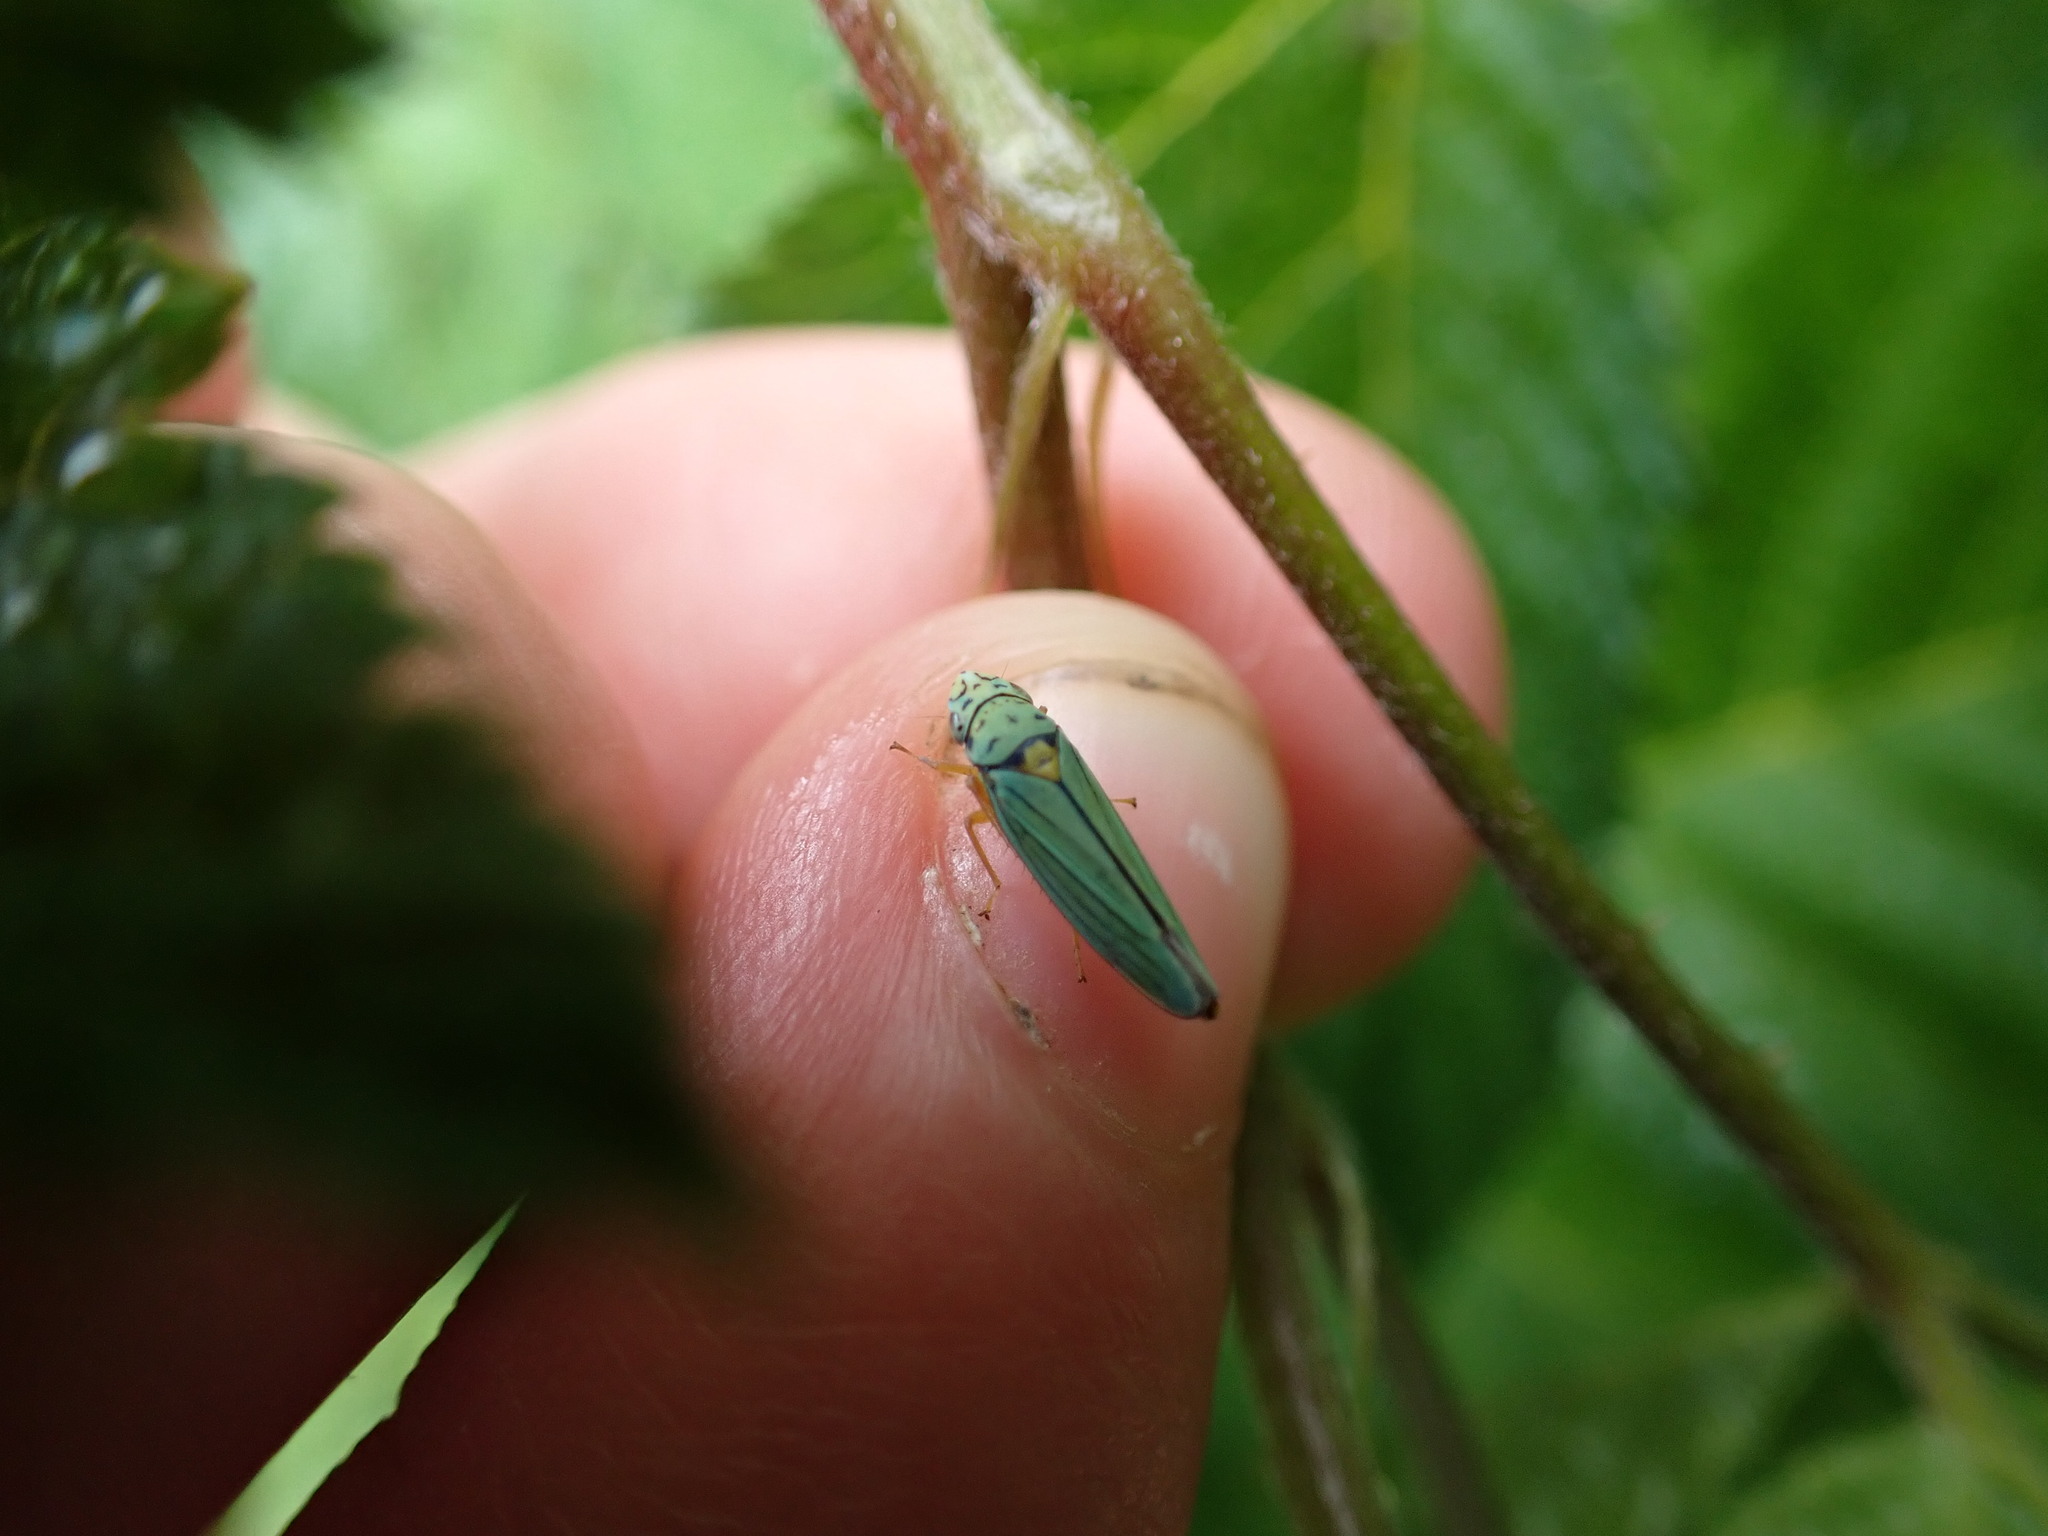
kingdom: Animalia
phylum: Arthropoda
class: Insecta
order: Hemiptera
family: Cicadellidae
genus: Graphocephala
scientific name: Graphocephala atropunctata
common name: Blue-green sharpshooter
